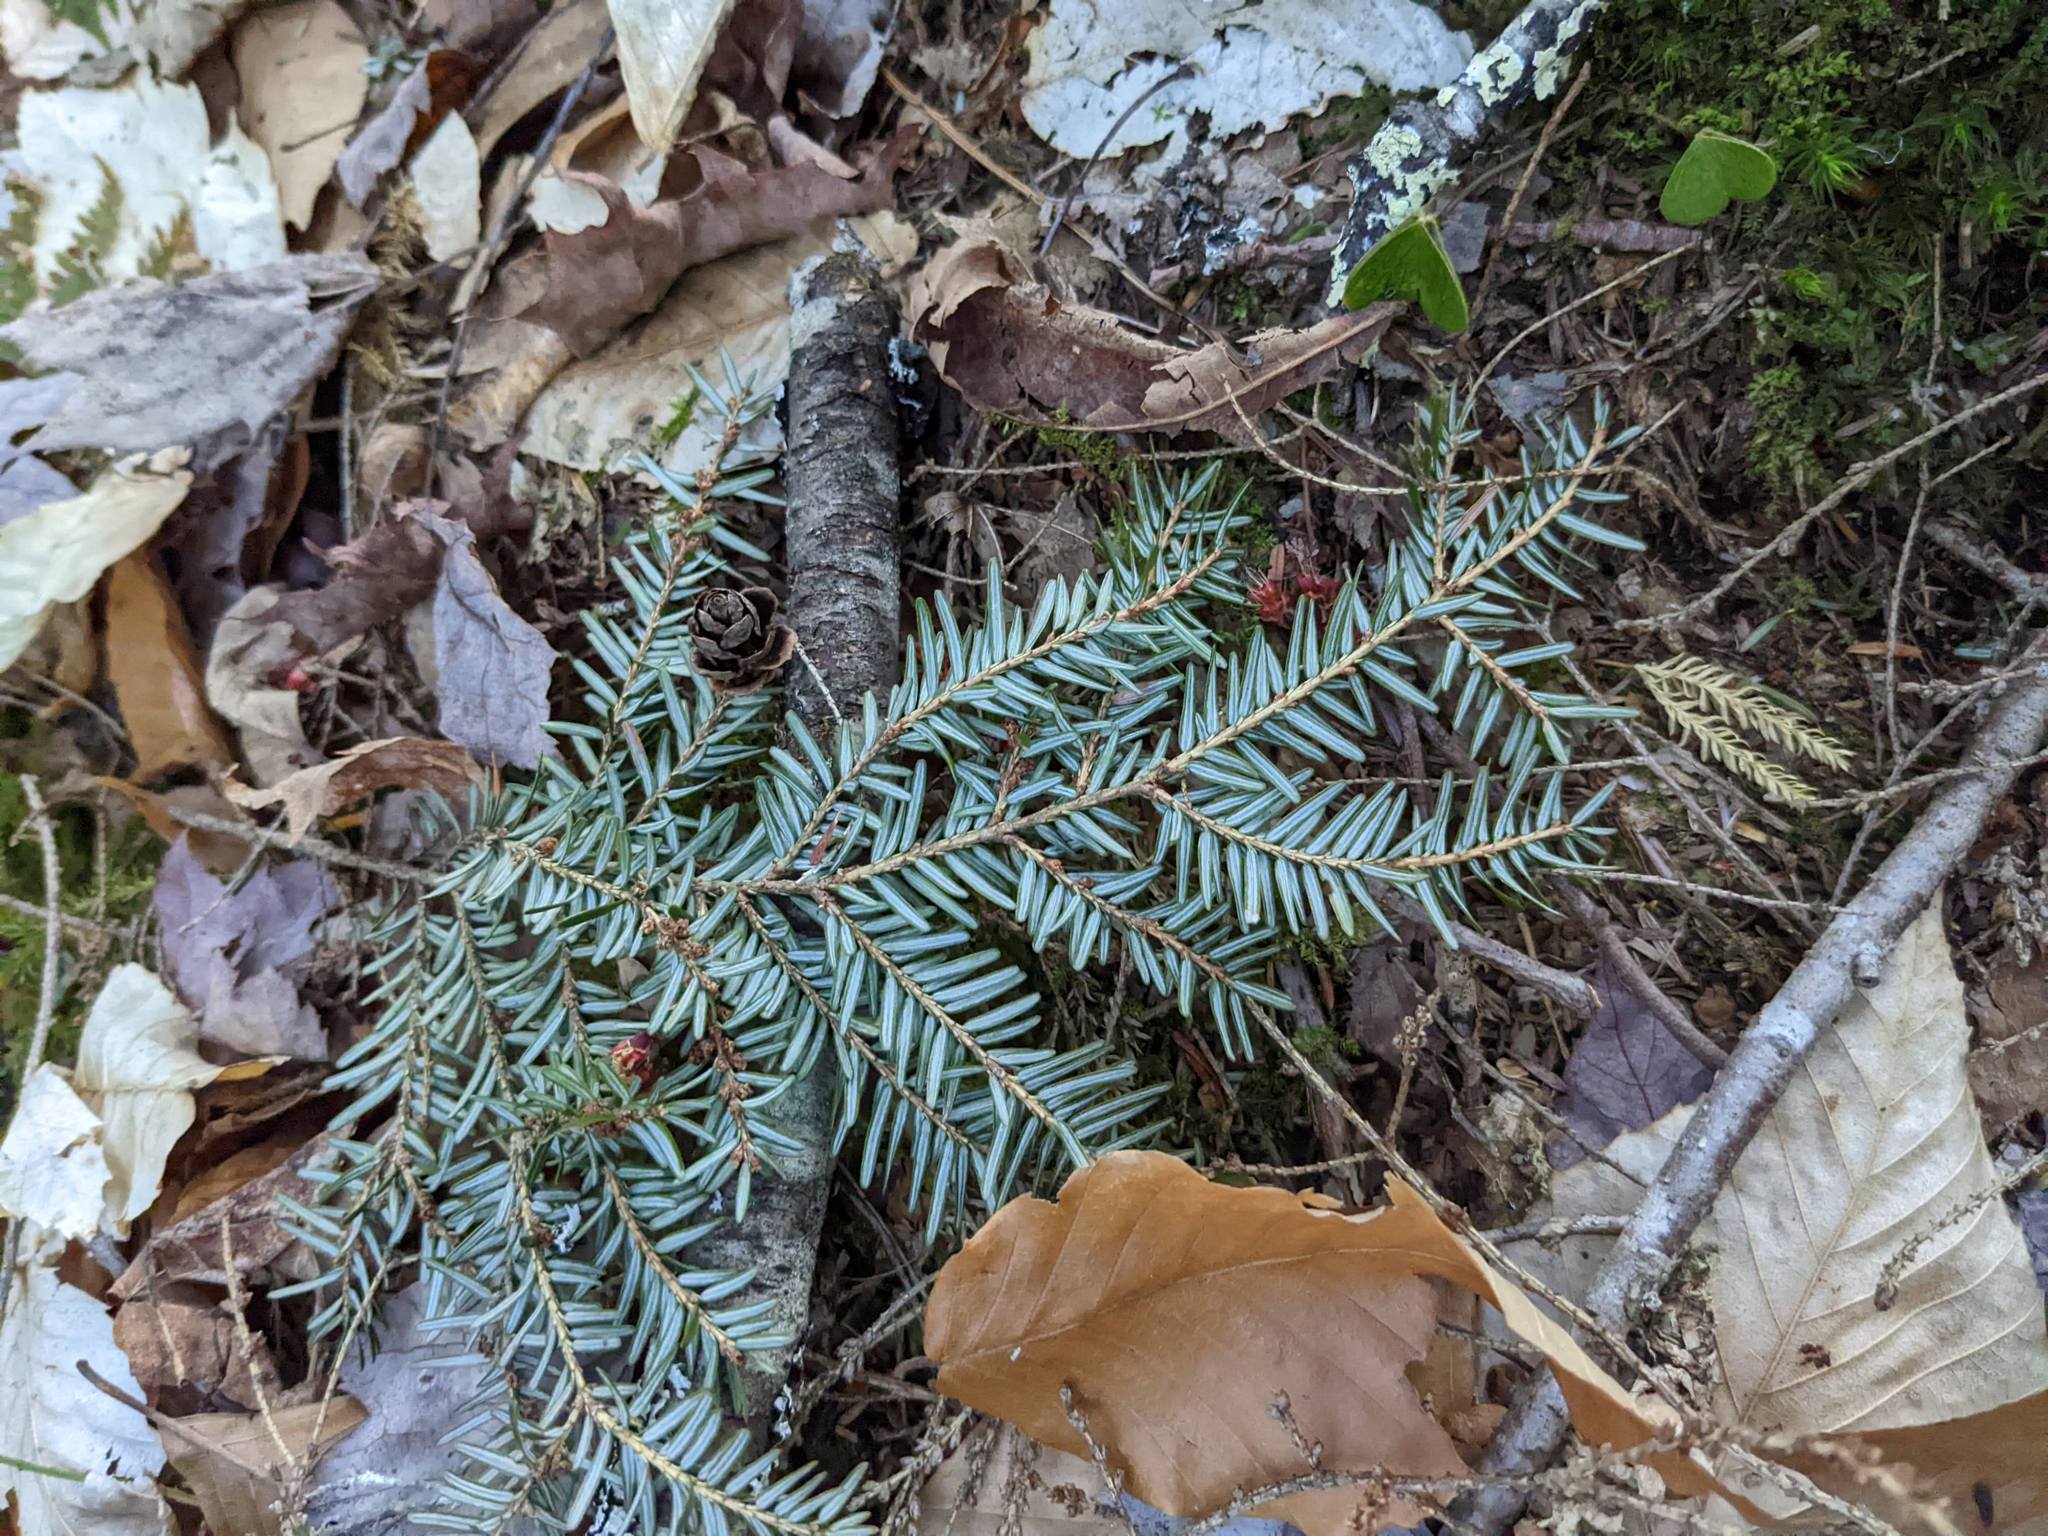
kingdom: Plantae
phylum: Tracheophyta
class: Pinopsida
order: Pinales
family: Pinaceae
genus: Tsuga
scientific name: Tsuga canadensis
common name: Eastern hemlock
